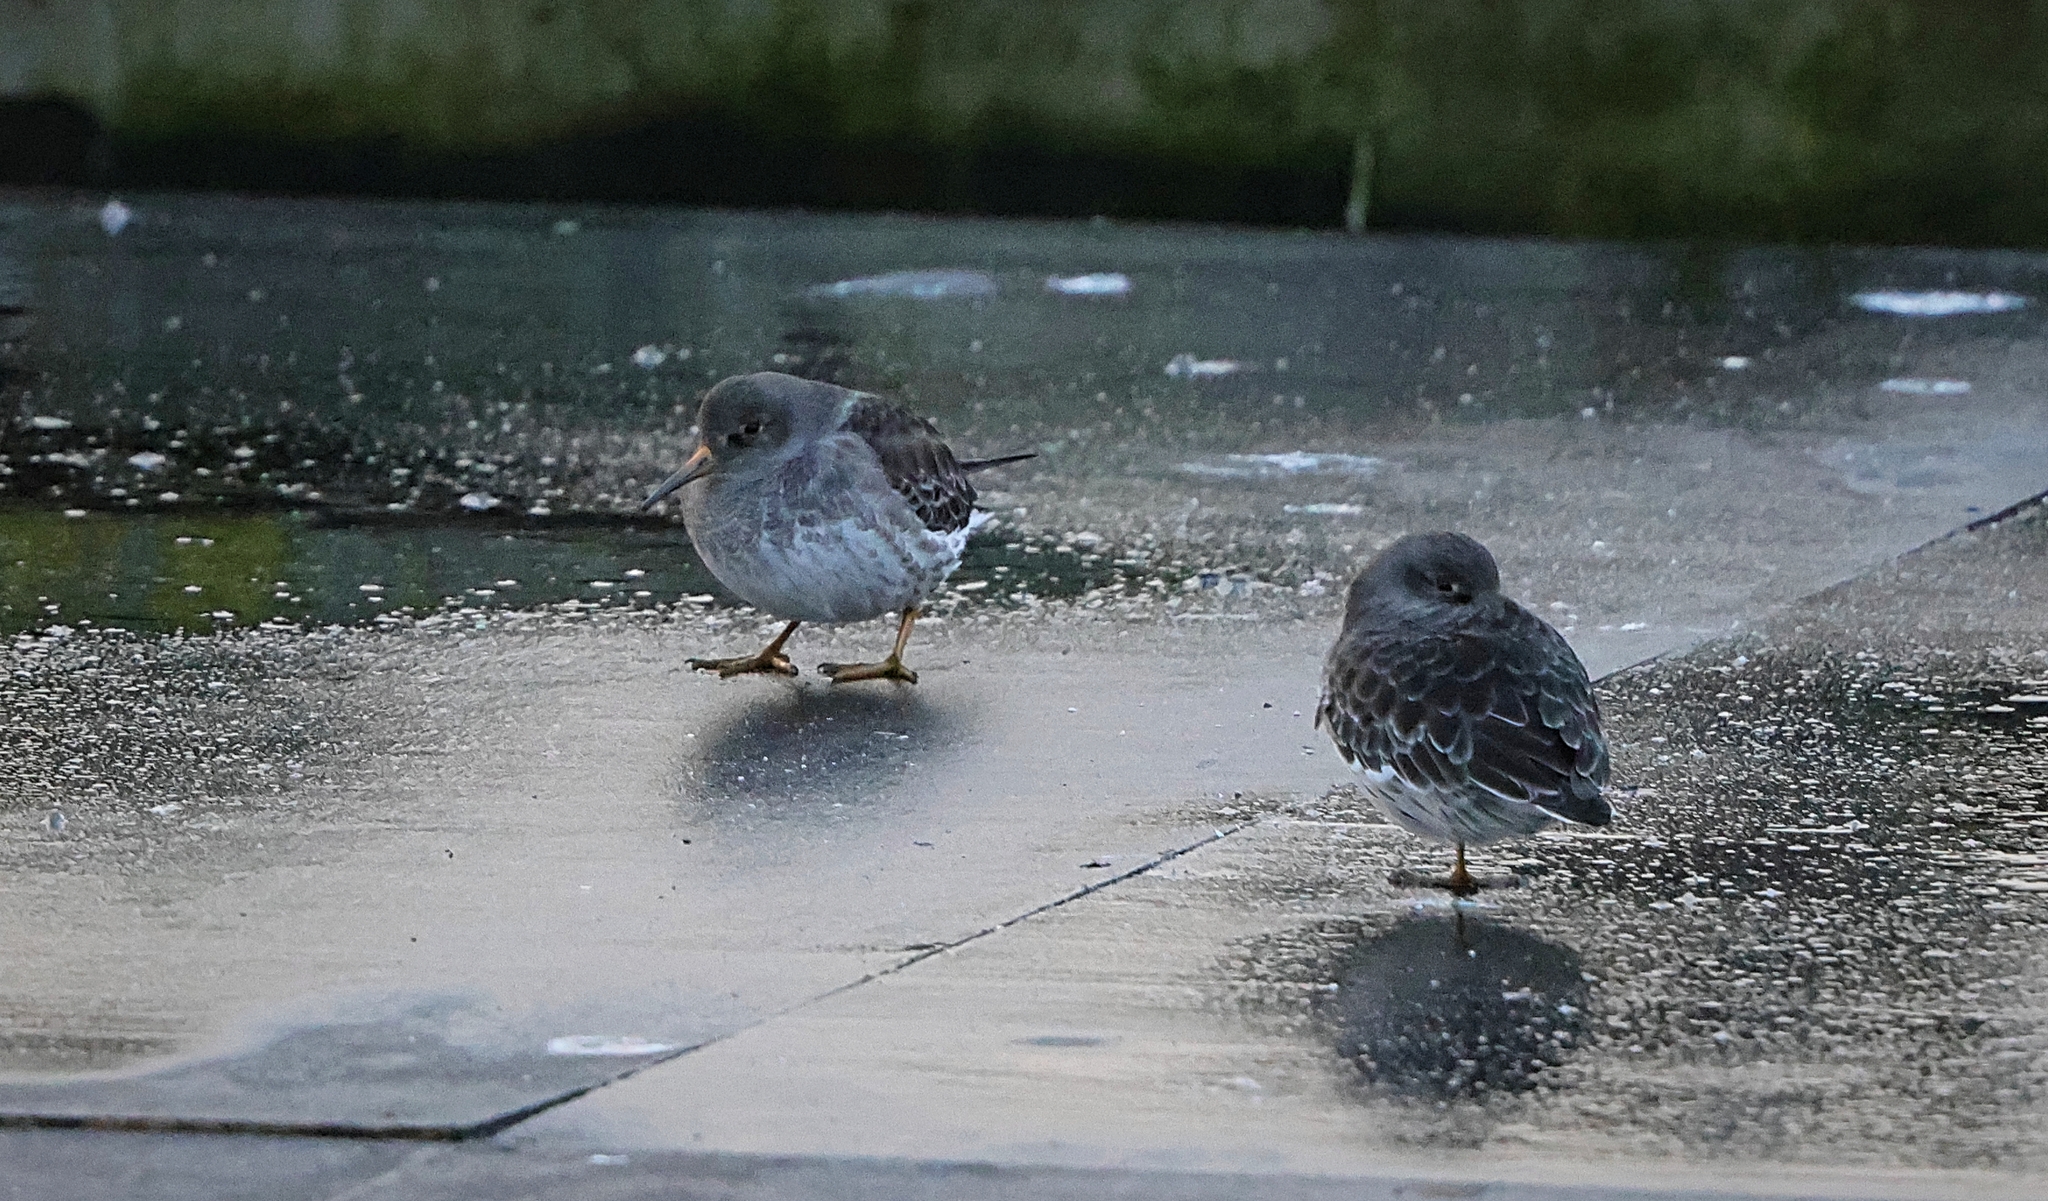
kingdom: Animalia
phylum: Chordata
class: Aves
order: Charadriiformes
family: Scolopacidae
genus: Calidris
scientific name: Calidris maritima
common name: Purple sandpiper
